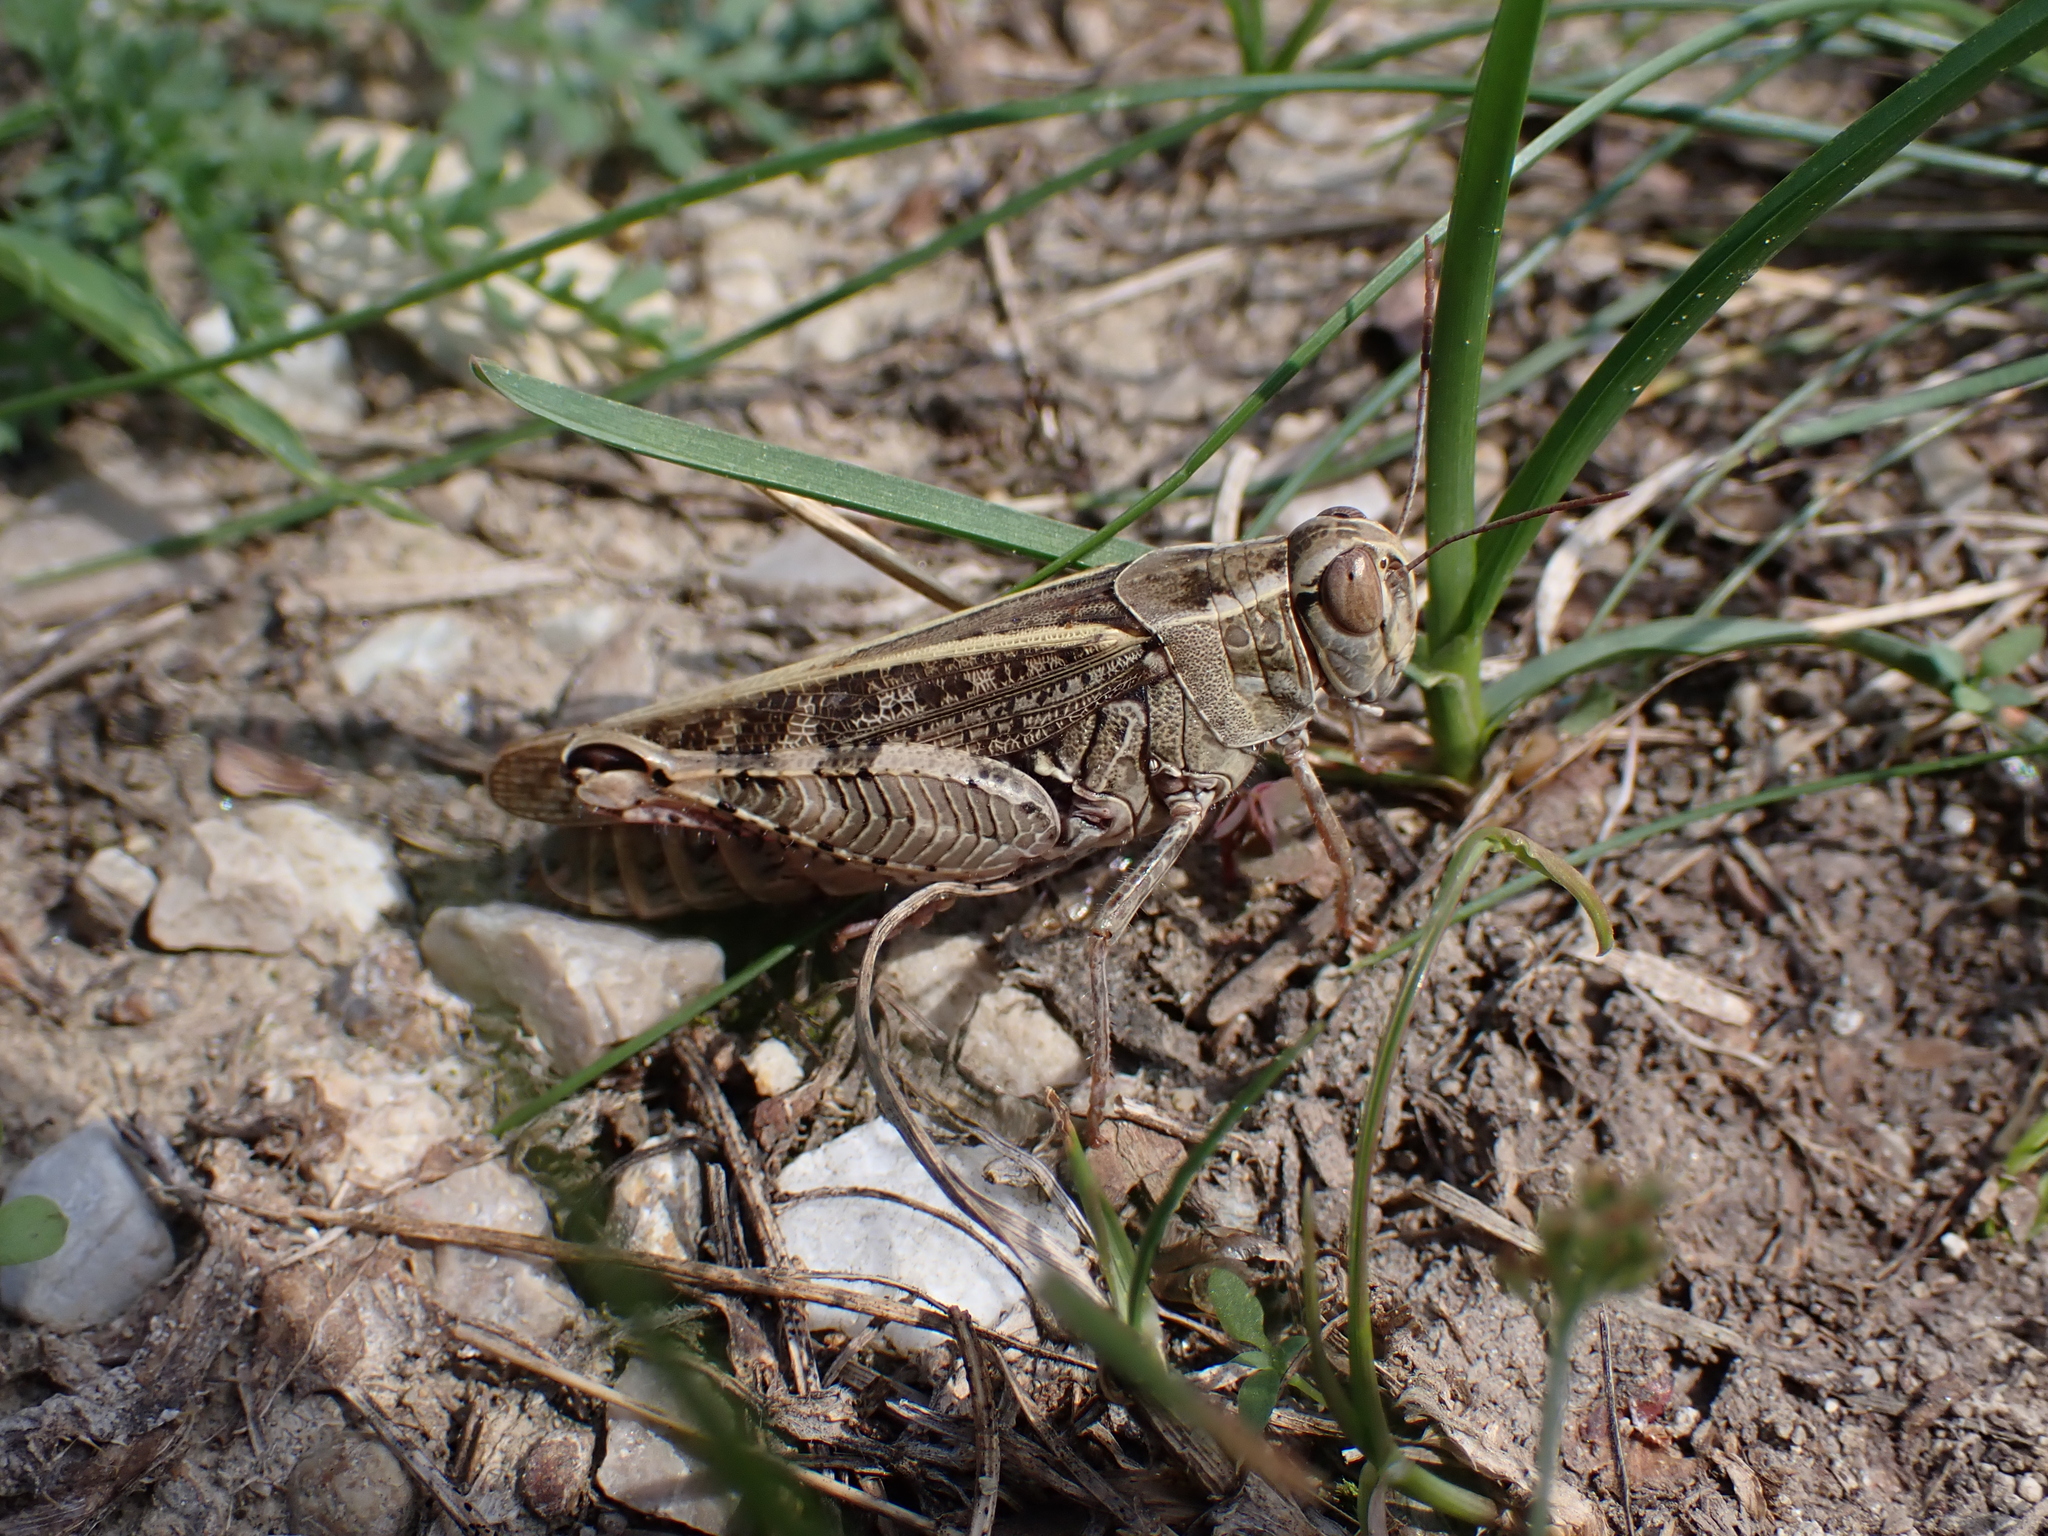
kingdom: Animalia
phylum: Arthropoda
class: Insecta
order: Orthoptera
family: Acrididae
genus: Calliptamus
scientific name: Calliptamus italicus
